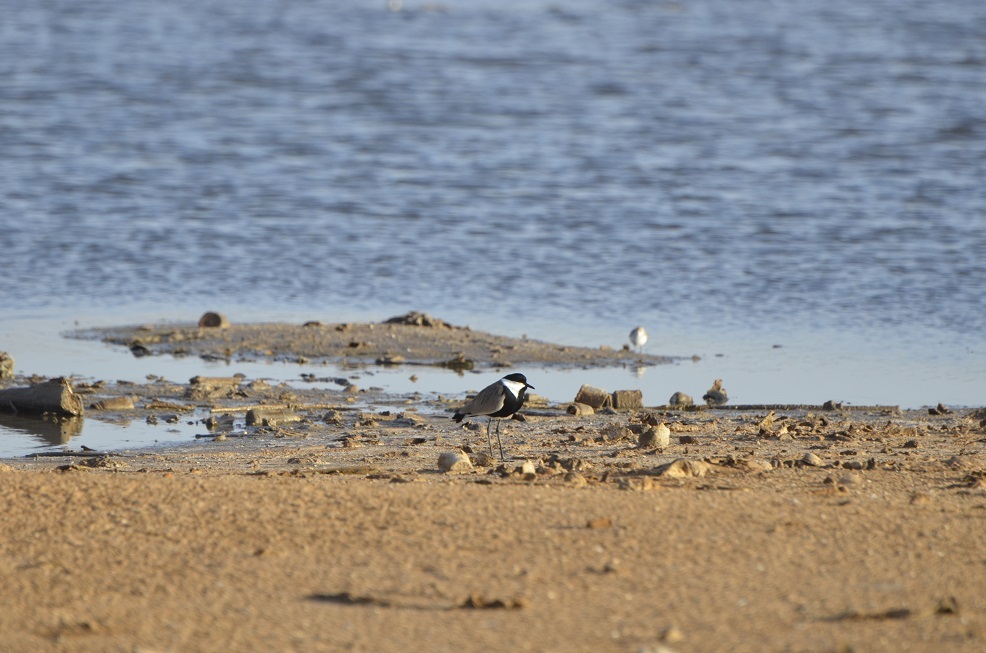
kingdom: Animalia
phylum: Chordata
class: Aves
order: Charadriiformes
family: Charadriidae
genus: Vanellus
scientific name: Vanellus spinosus
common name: Spur-winged lapwing
